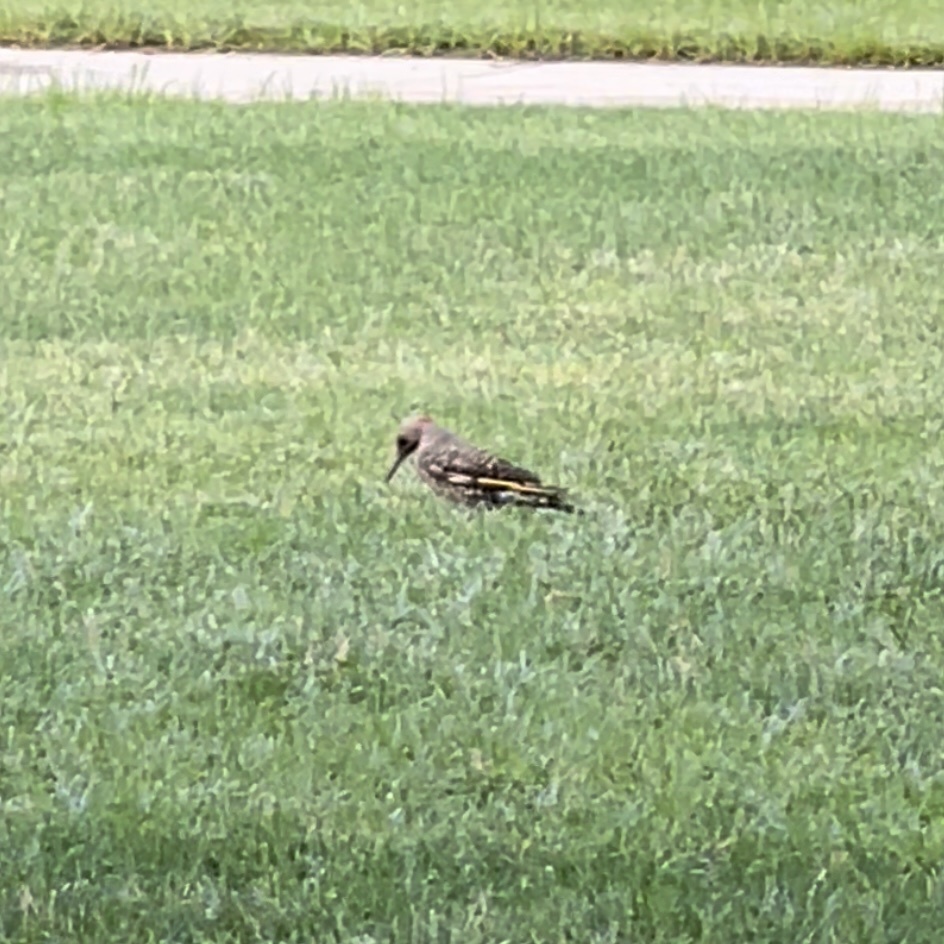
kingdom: Animalia
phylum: Chordata
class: Aves
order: Piciformes
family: Picidae
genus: Colaptes
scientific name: Colaptes auratus
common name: Northern flicker
